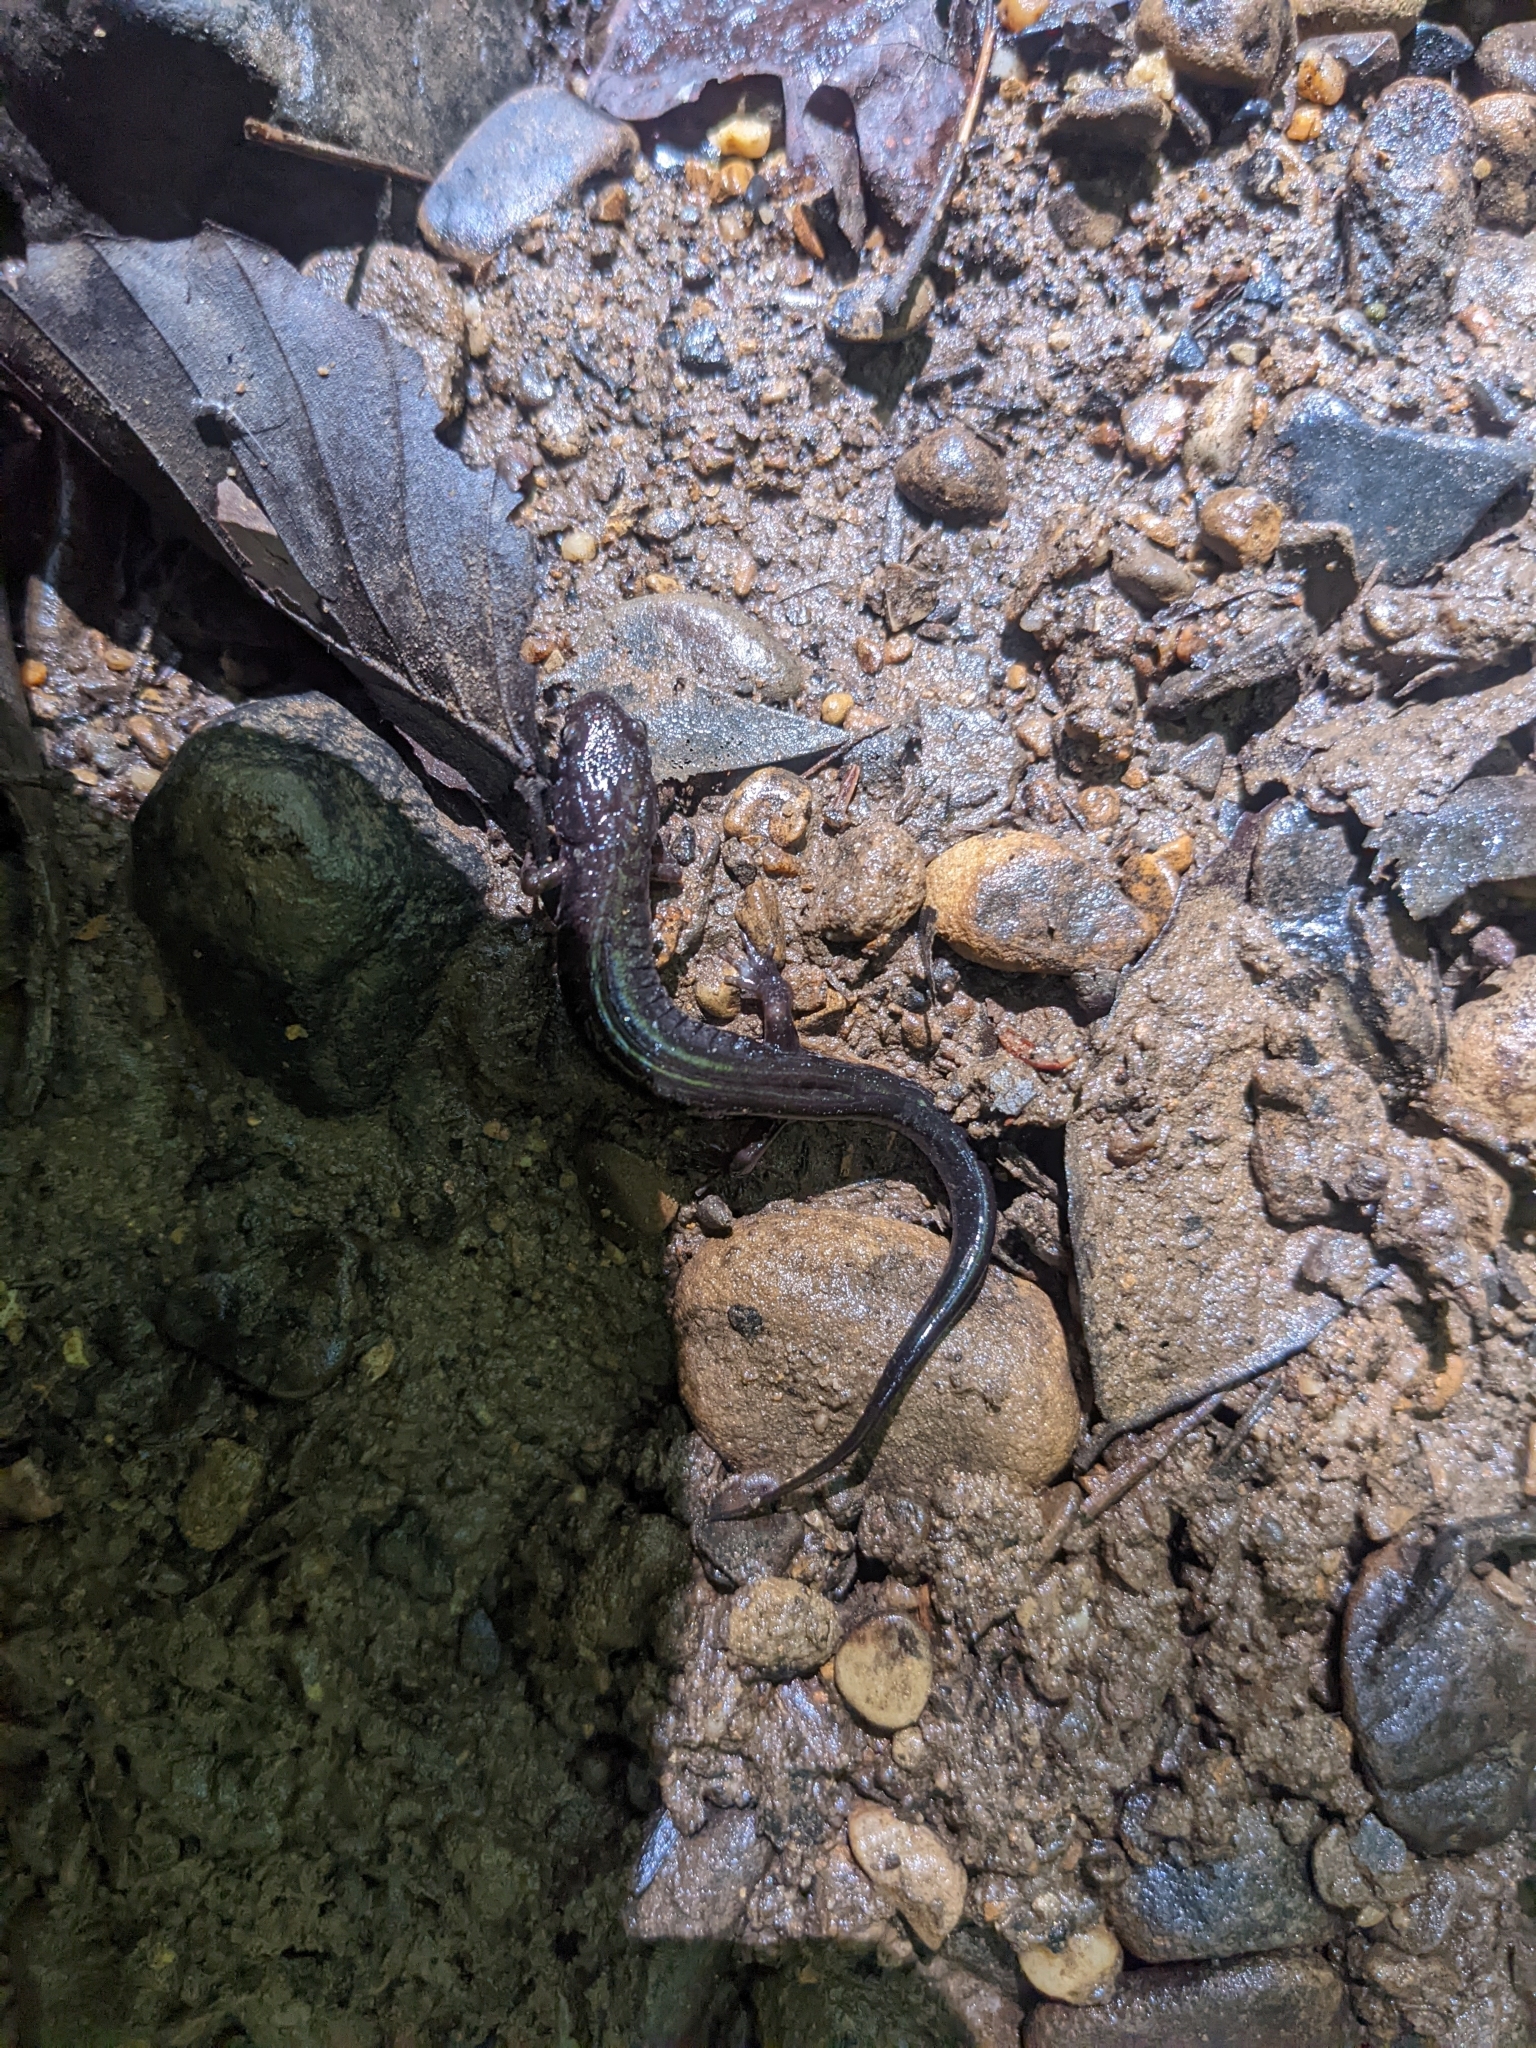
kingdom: Animalia
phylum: Chordata
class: Amphibia
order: Caudata
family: Plethodontidae
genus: Desmognathus
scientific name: Desmognathus ochrophaeus
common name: Allegheny mountain dusky salamander
